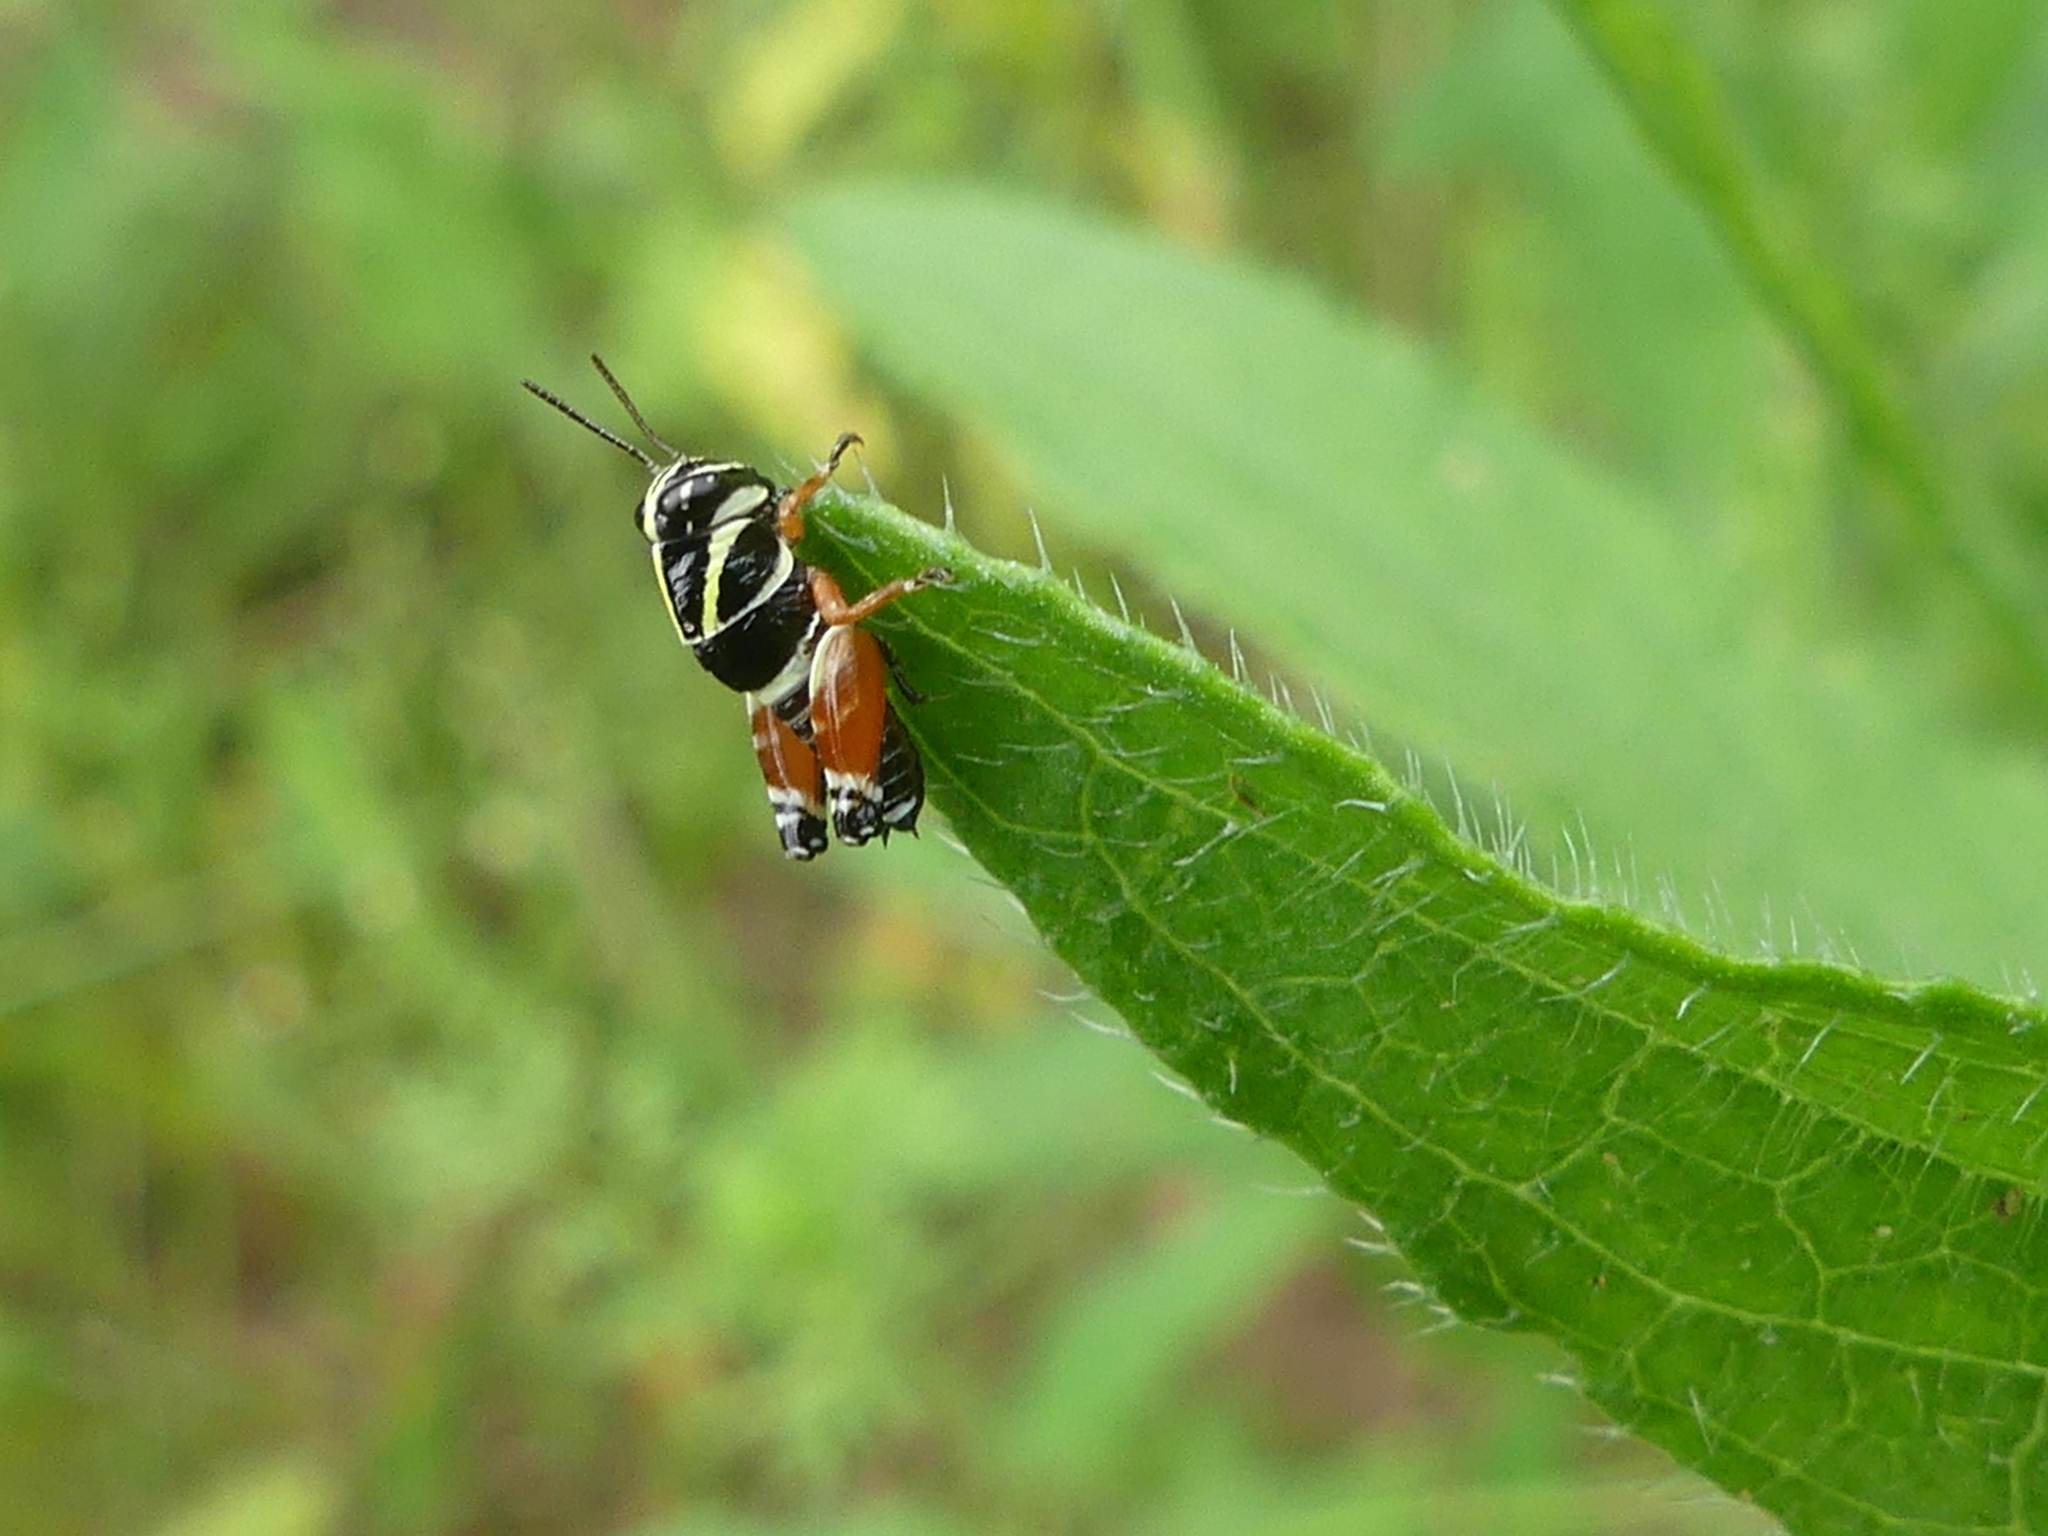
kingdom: Animalia
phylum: Arthropoda
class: Insecta
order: Orthoptera
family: Acrididae
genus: Aidemona
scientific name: Aidemona azteca
